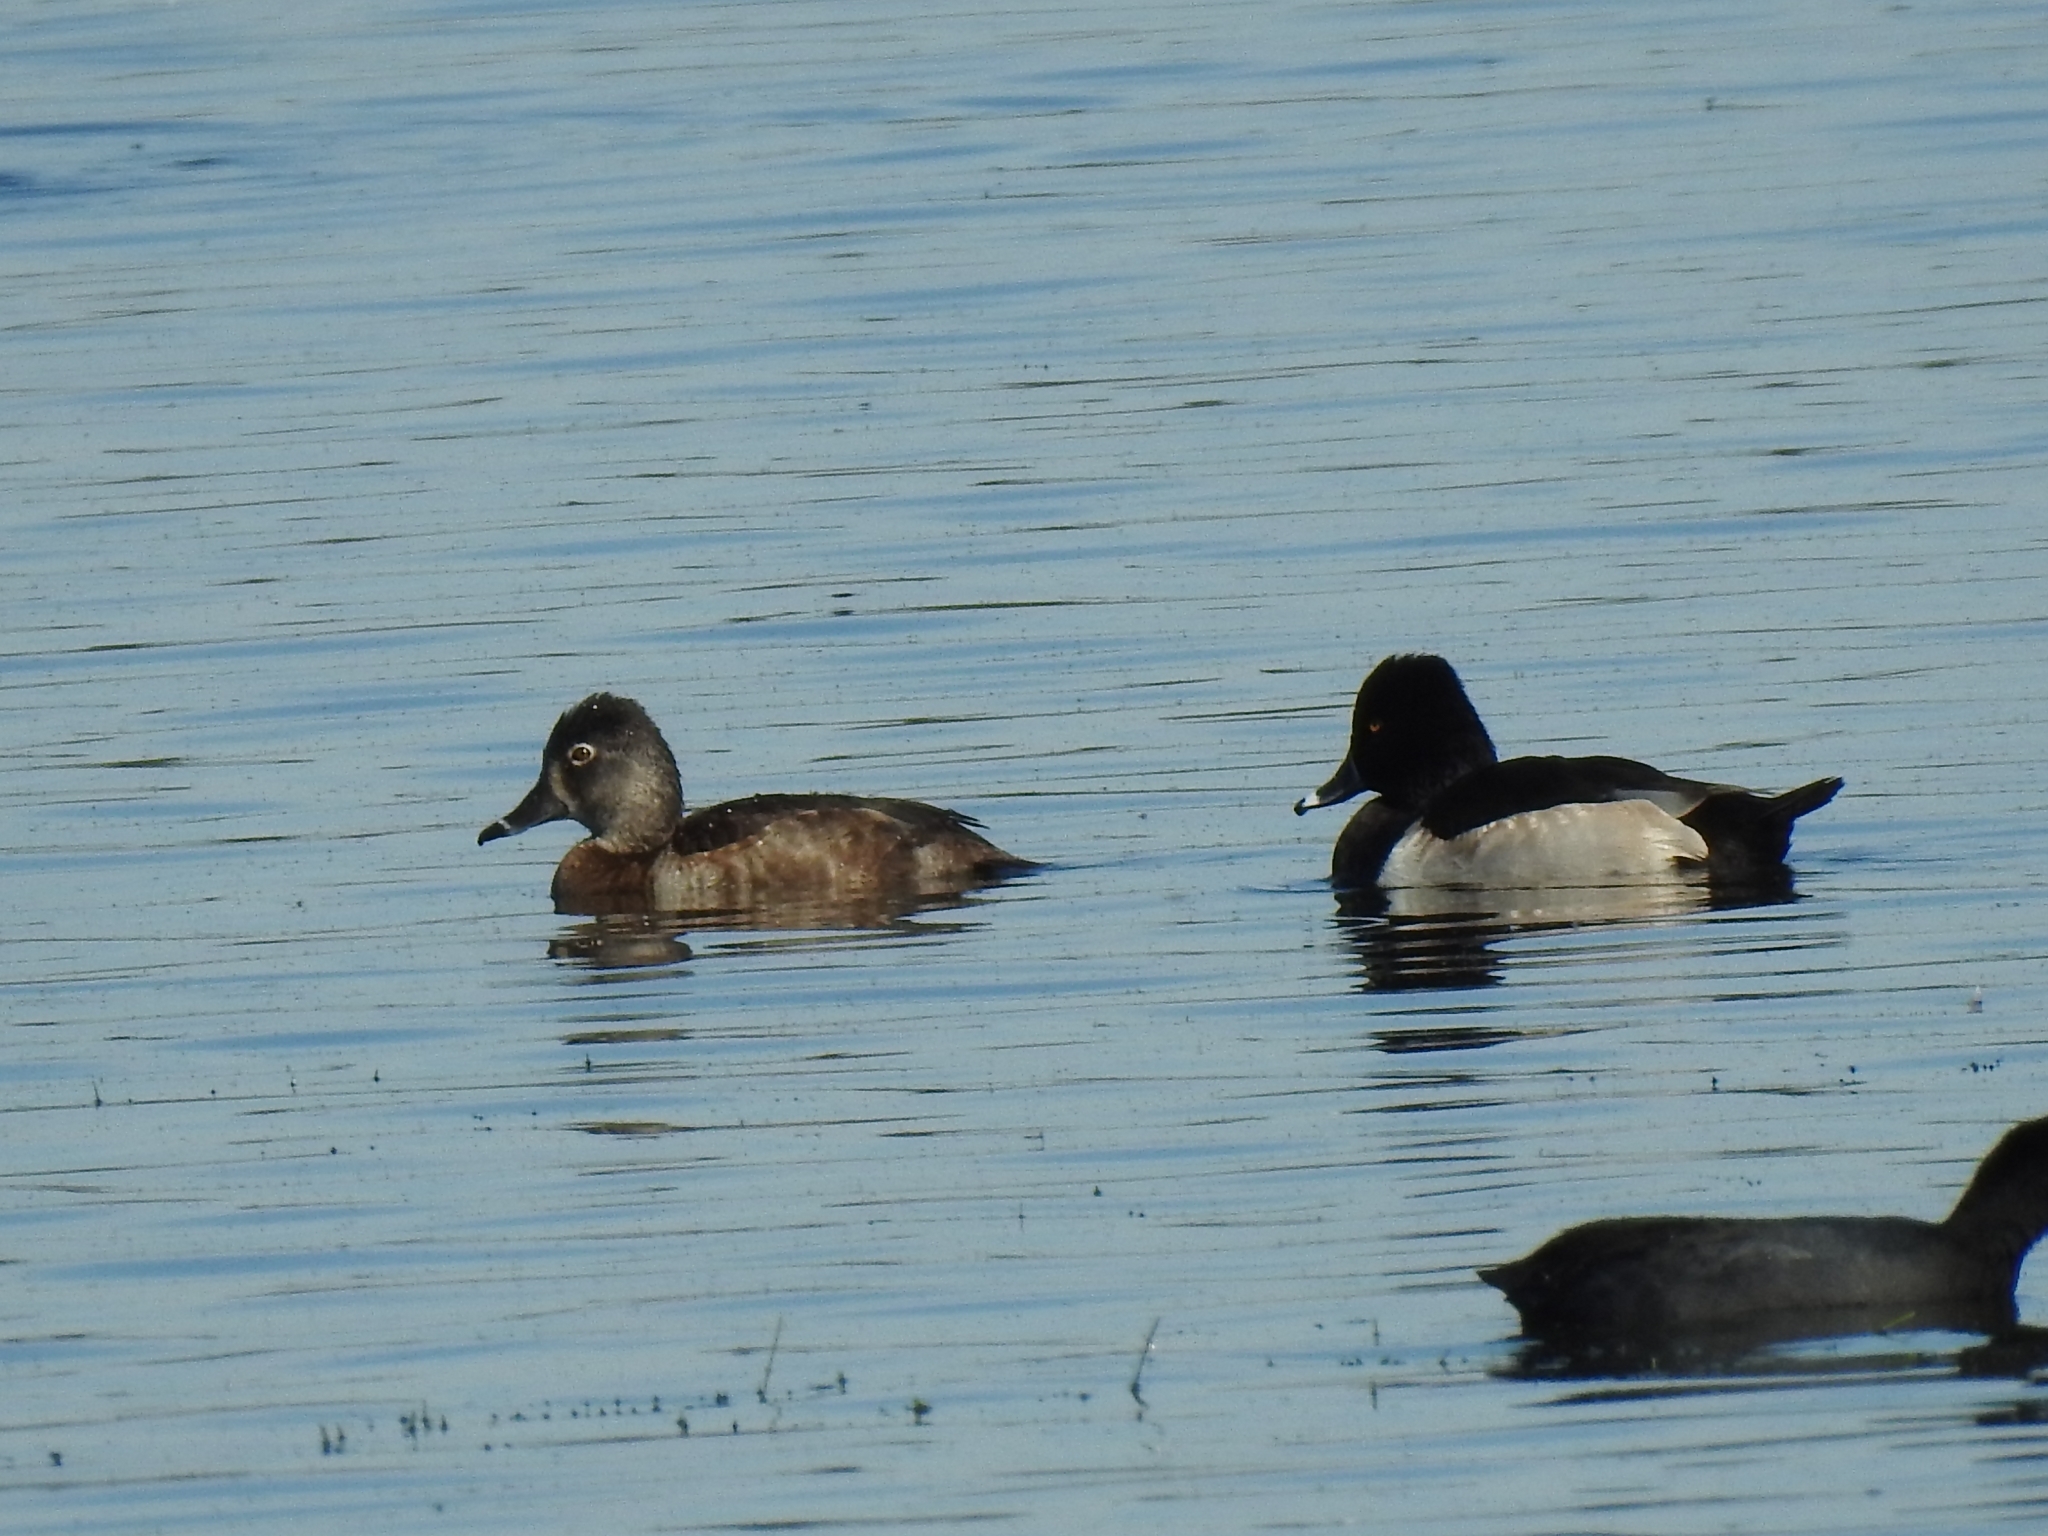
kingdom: Animalia
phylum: Chordata
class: Aves
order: Anseriformes
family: Anatidae
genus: Aythya
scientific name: Aythya collaris
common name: Ring-necked duck
